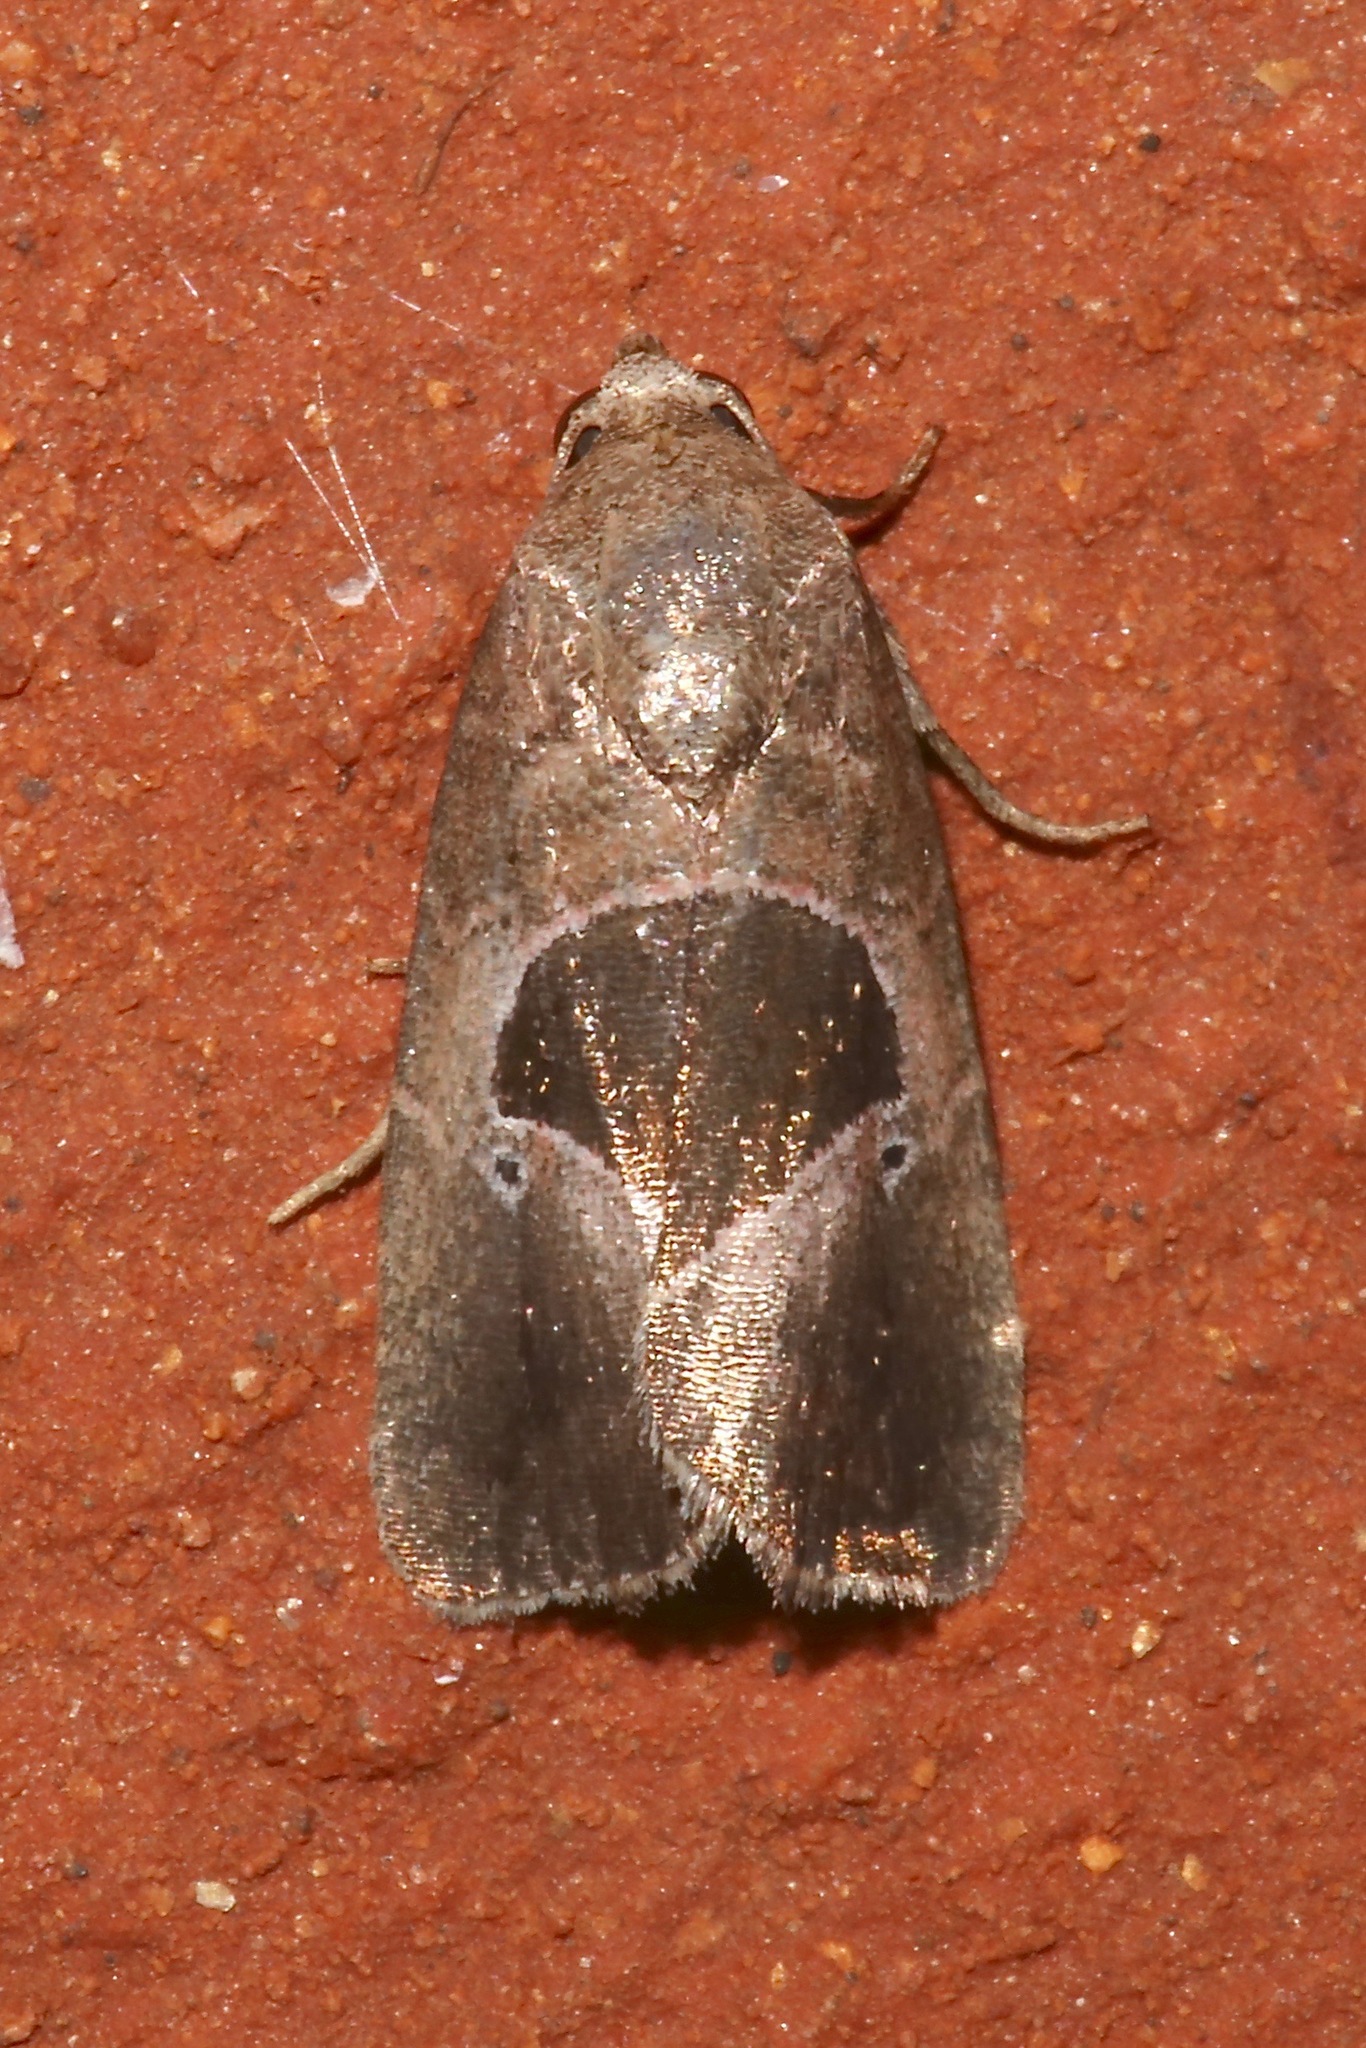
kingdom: Animalia
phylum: Arthropoda
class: Insecta
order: Lepidoptera
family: Noctuidae
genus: Elaphria
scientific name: Elaphria deltoides
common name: Cutworm moth
